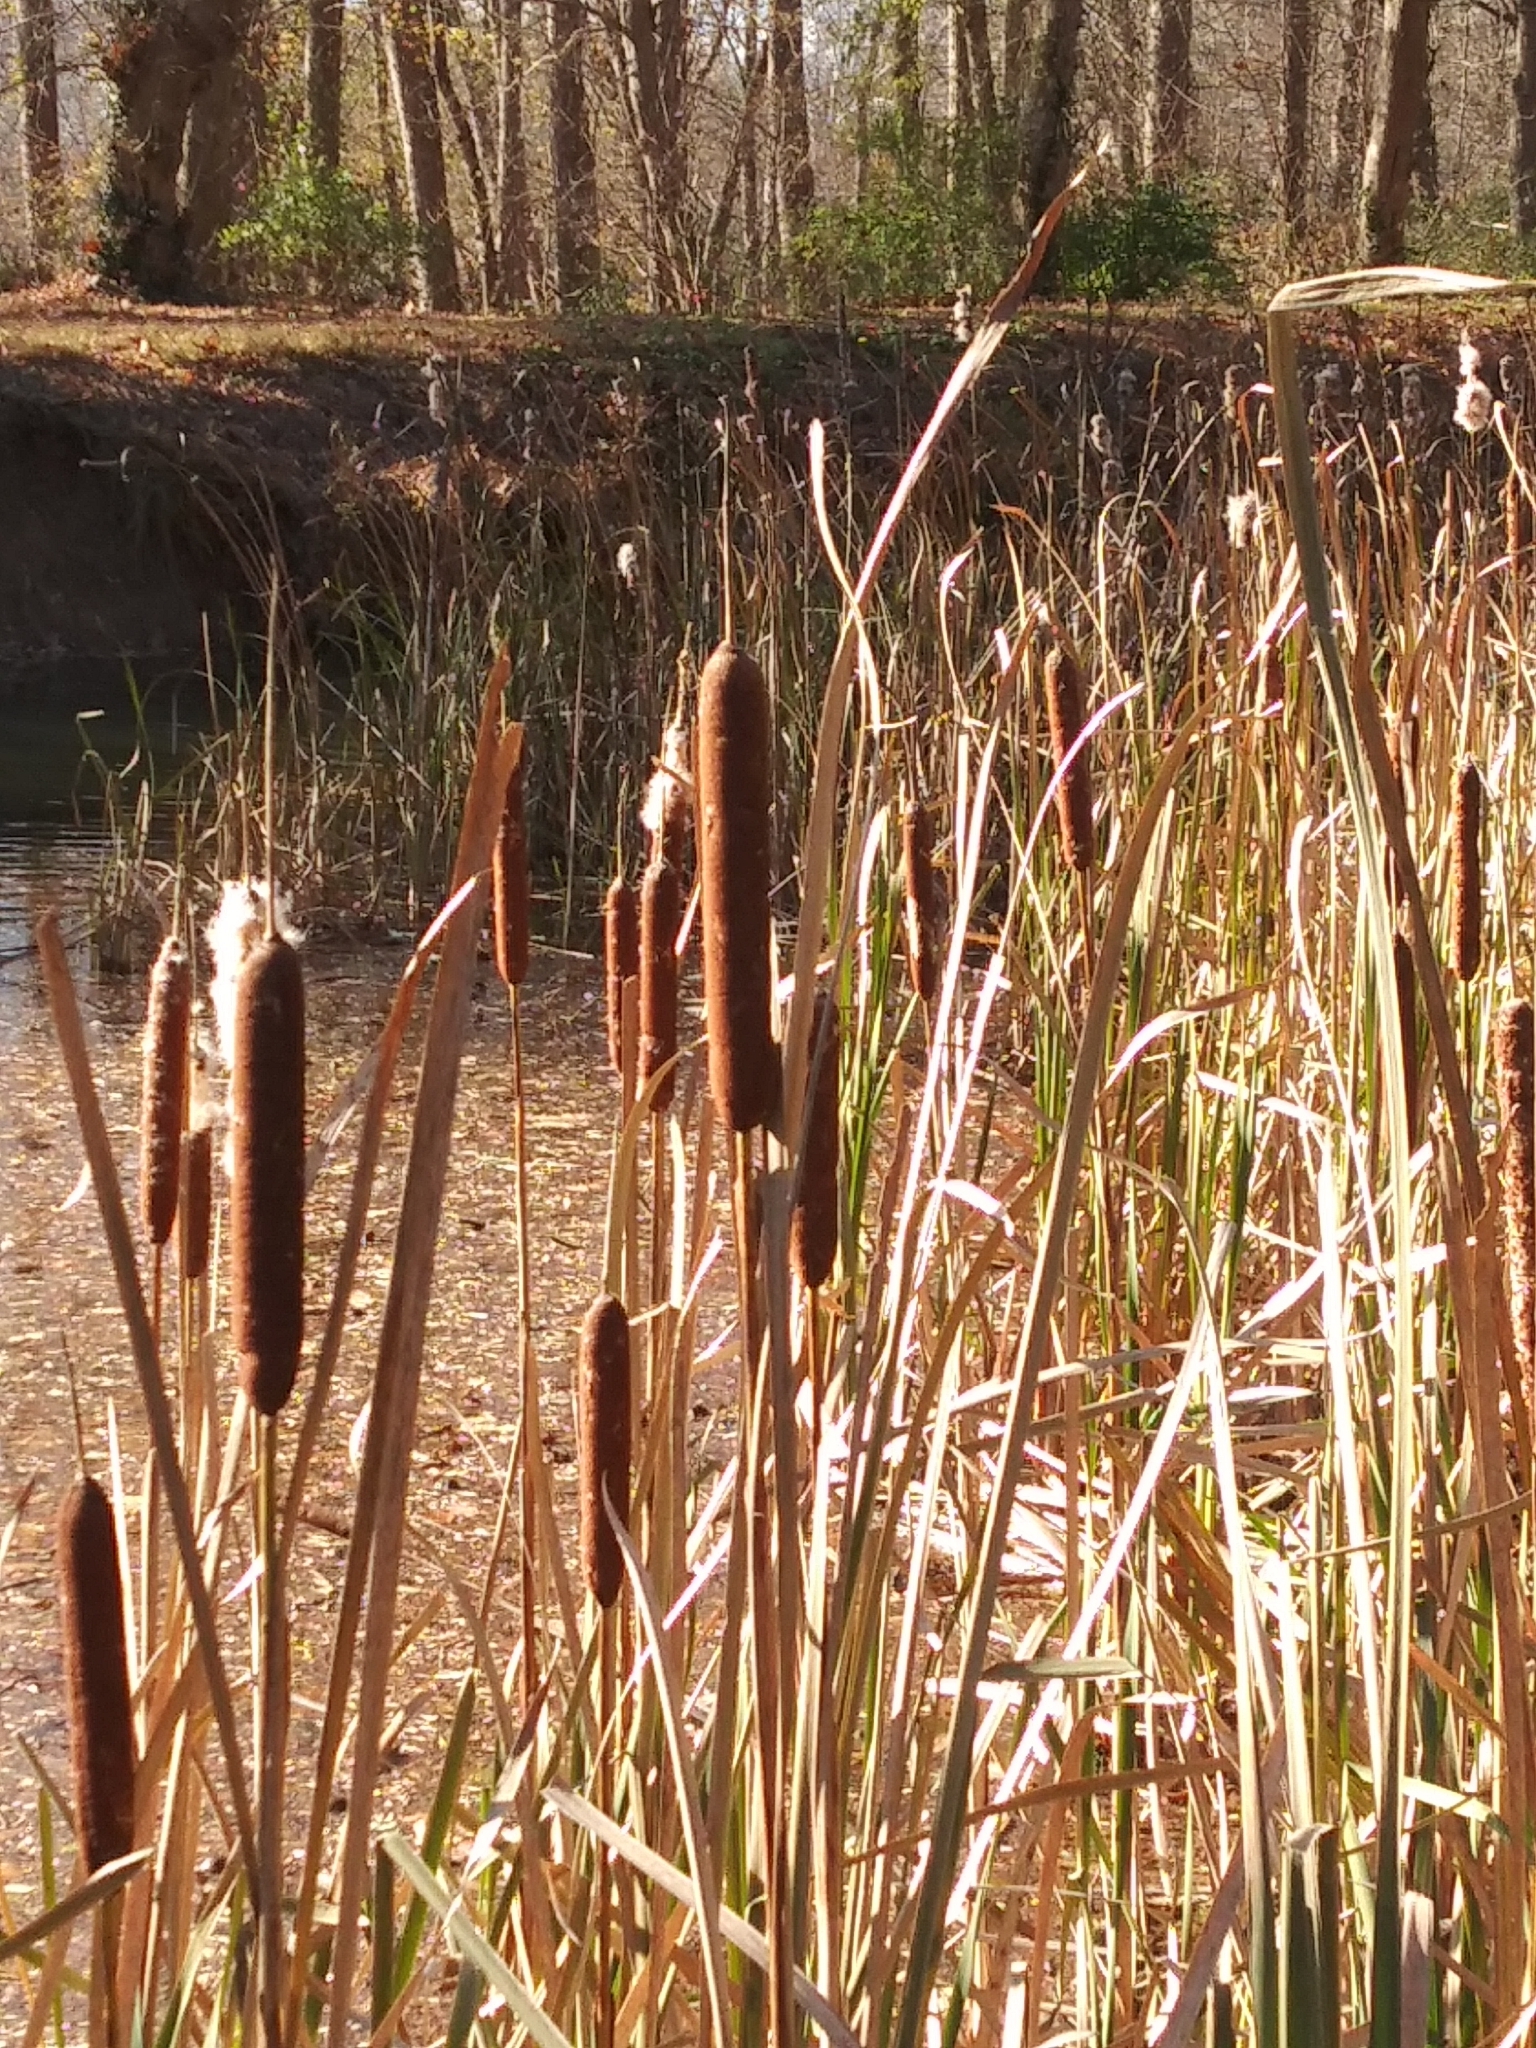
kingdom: Plantae
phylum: Tracheophyta
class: Liliopsida
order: Poales
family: Typhaceae
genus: Typha
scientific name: Typha angustifolia
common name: Lesser bulrush
